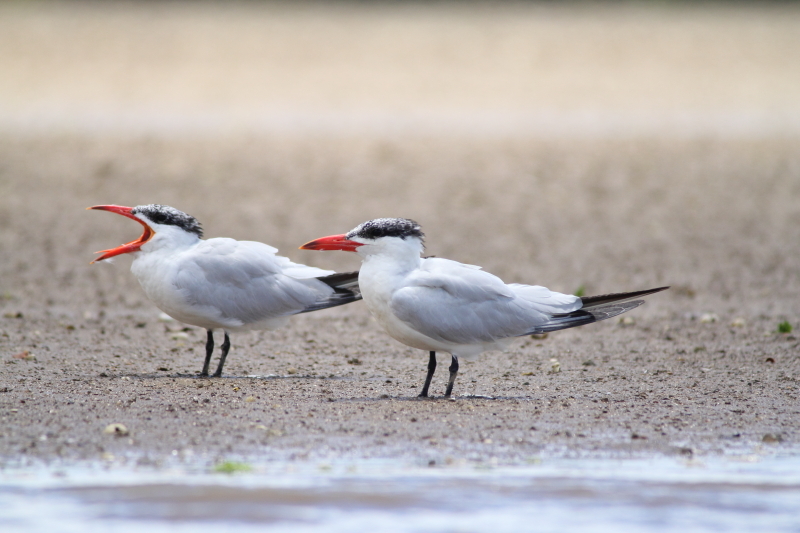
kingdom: Animalia
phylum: Chordata
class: Aves
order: Charadriiformes
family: Laridae
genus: Hydroprogne
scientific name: Hydroprogne caspia
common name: Caspian tern
